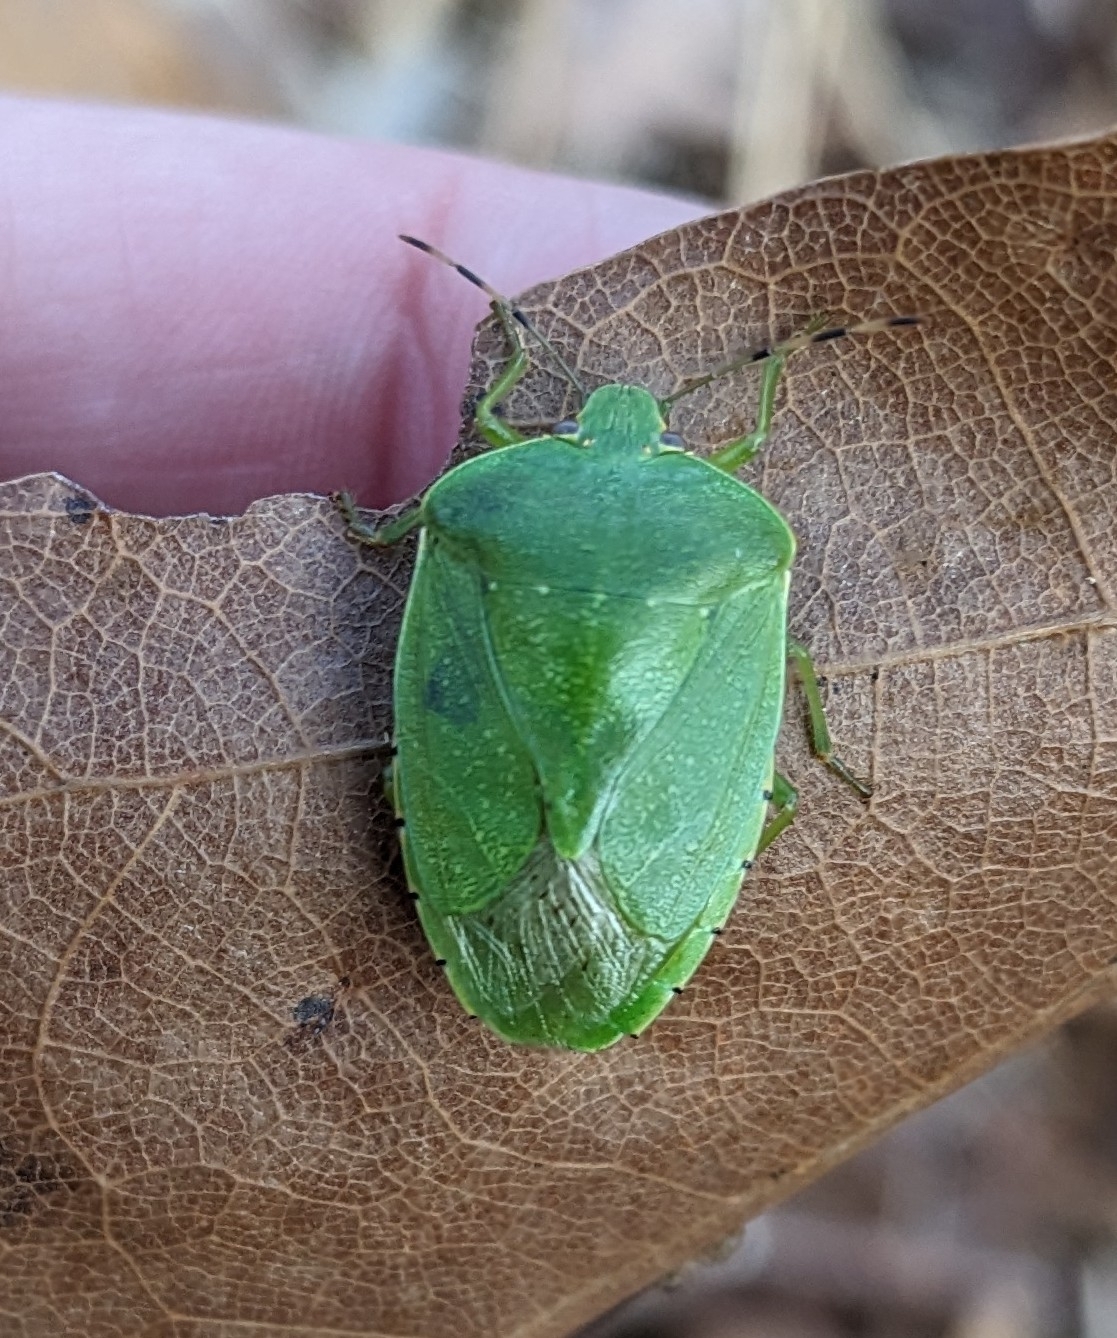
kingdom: Animalia
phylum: Arthropoda
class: Insecta
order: Hemiptera
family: Pentatomidae
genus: Chinavia
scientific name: Chinavia hilaris
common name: Green stink bug
